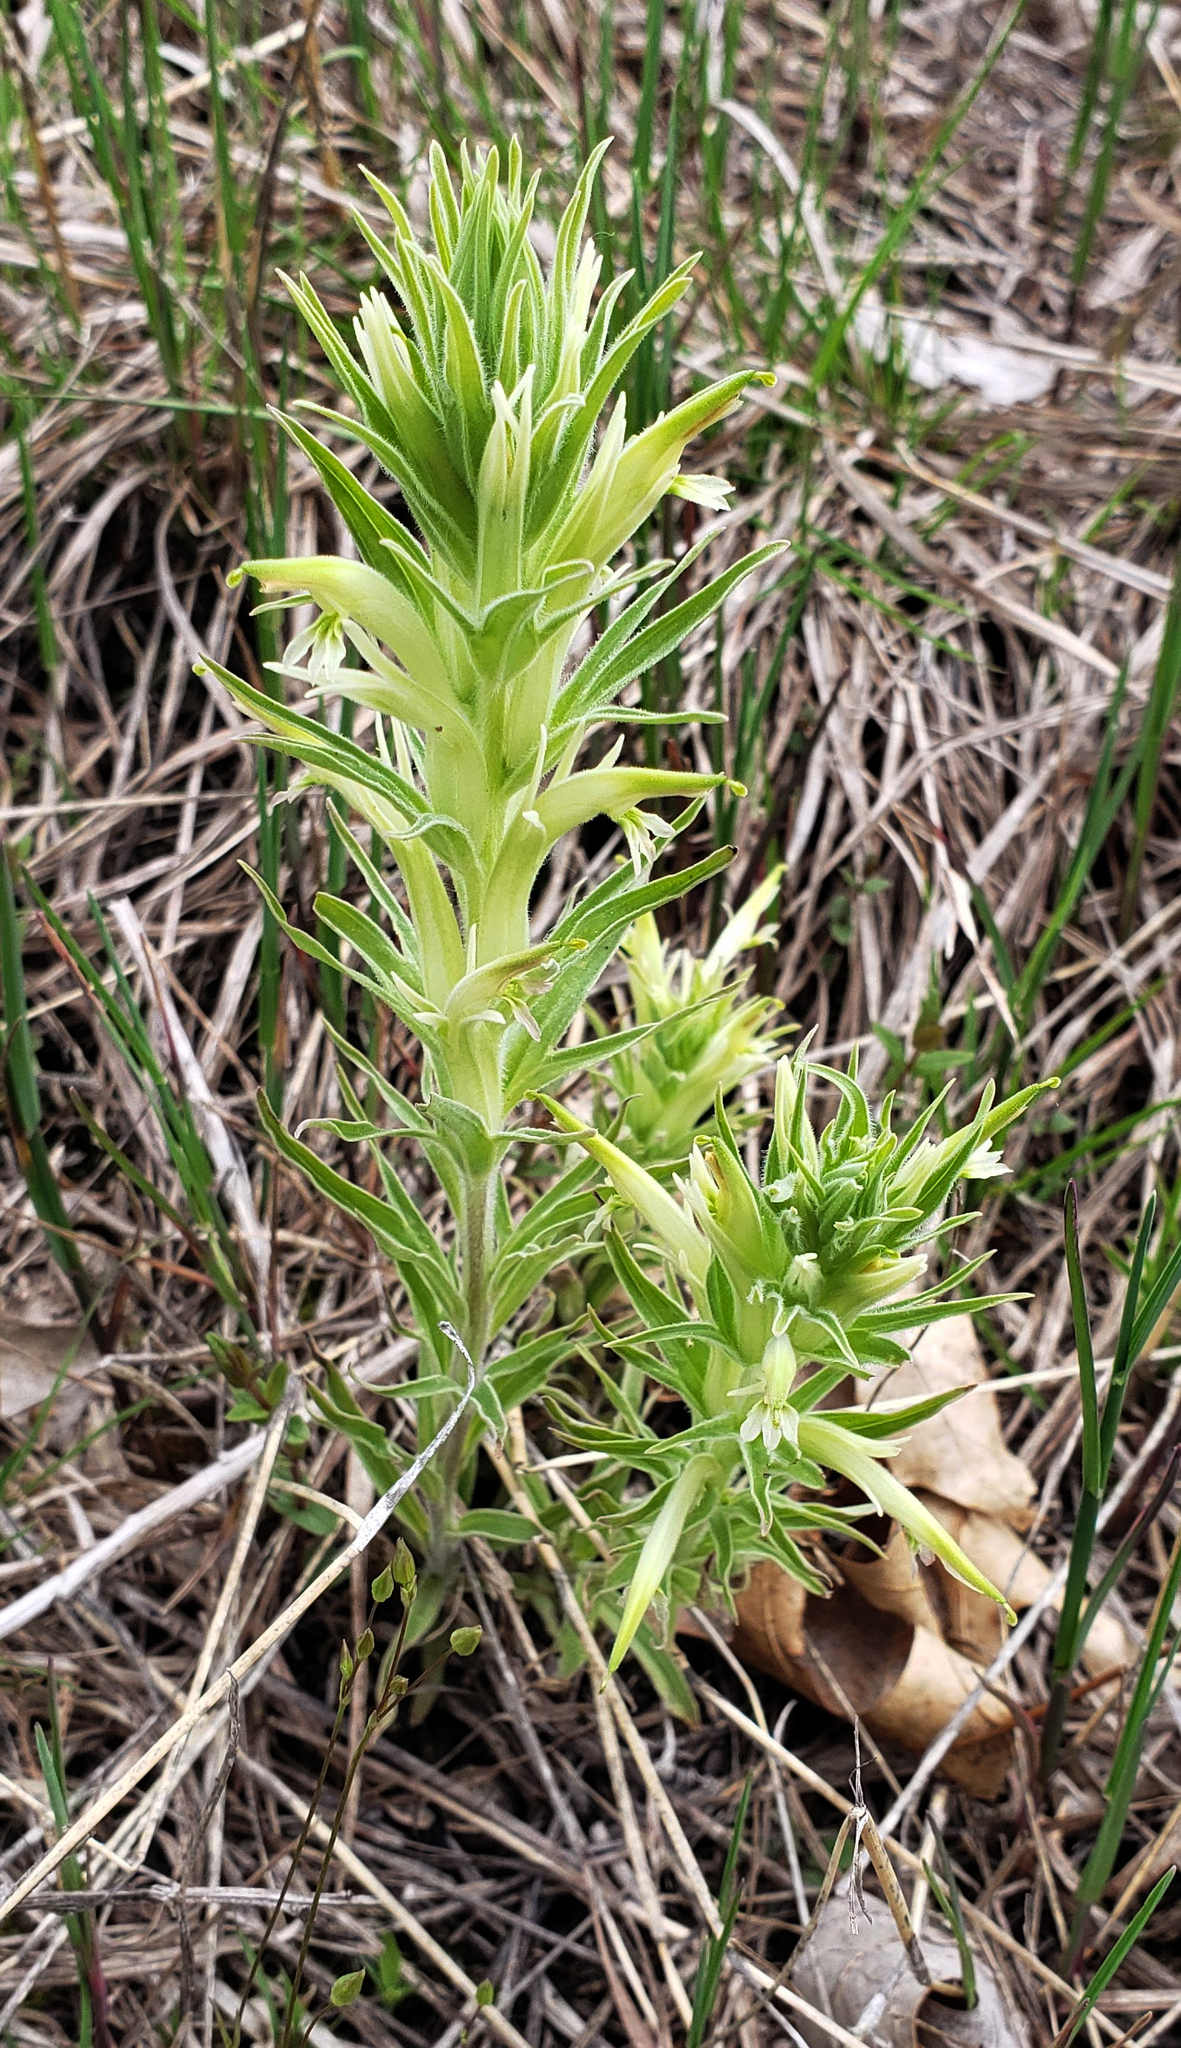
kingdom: Plantae
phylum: Tracheophyta
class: Magnoliopsida
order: Lamiales
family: Orobanchaceae
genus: Castilleja
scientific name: Castilleja sessiliflora
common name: Downy paintbrush
